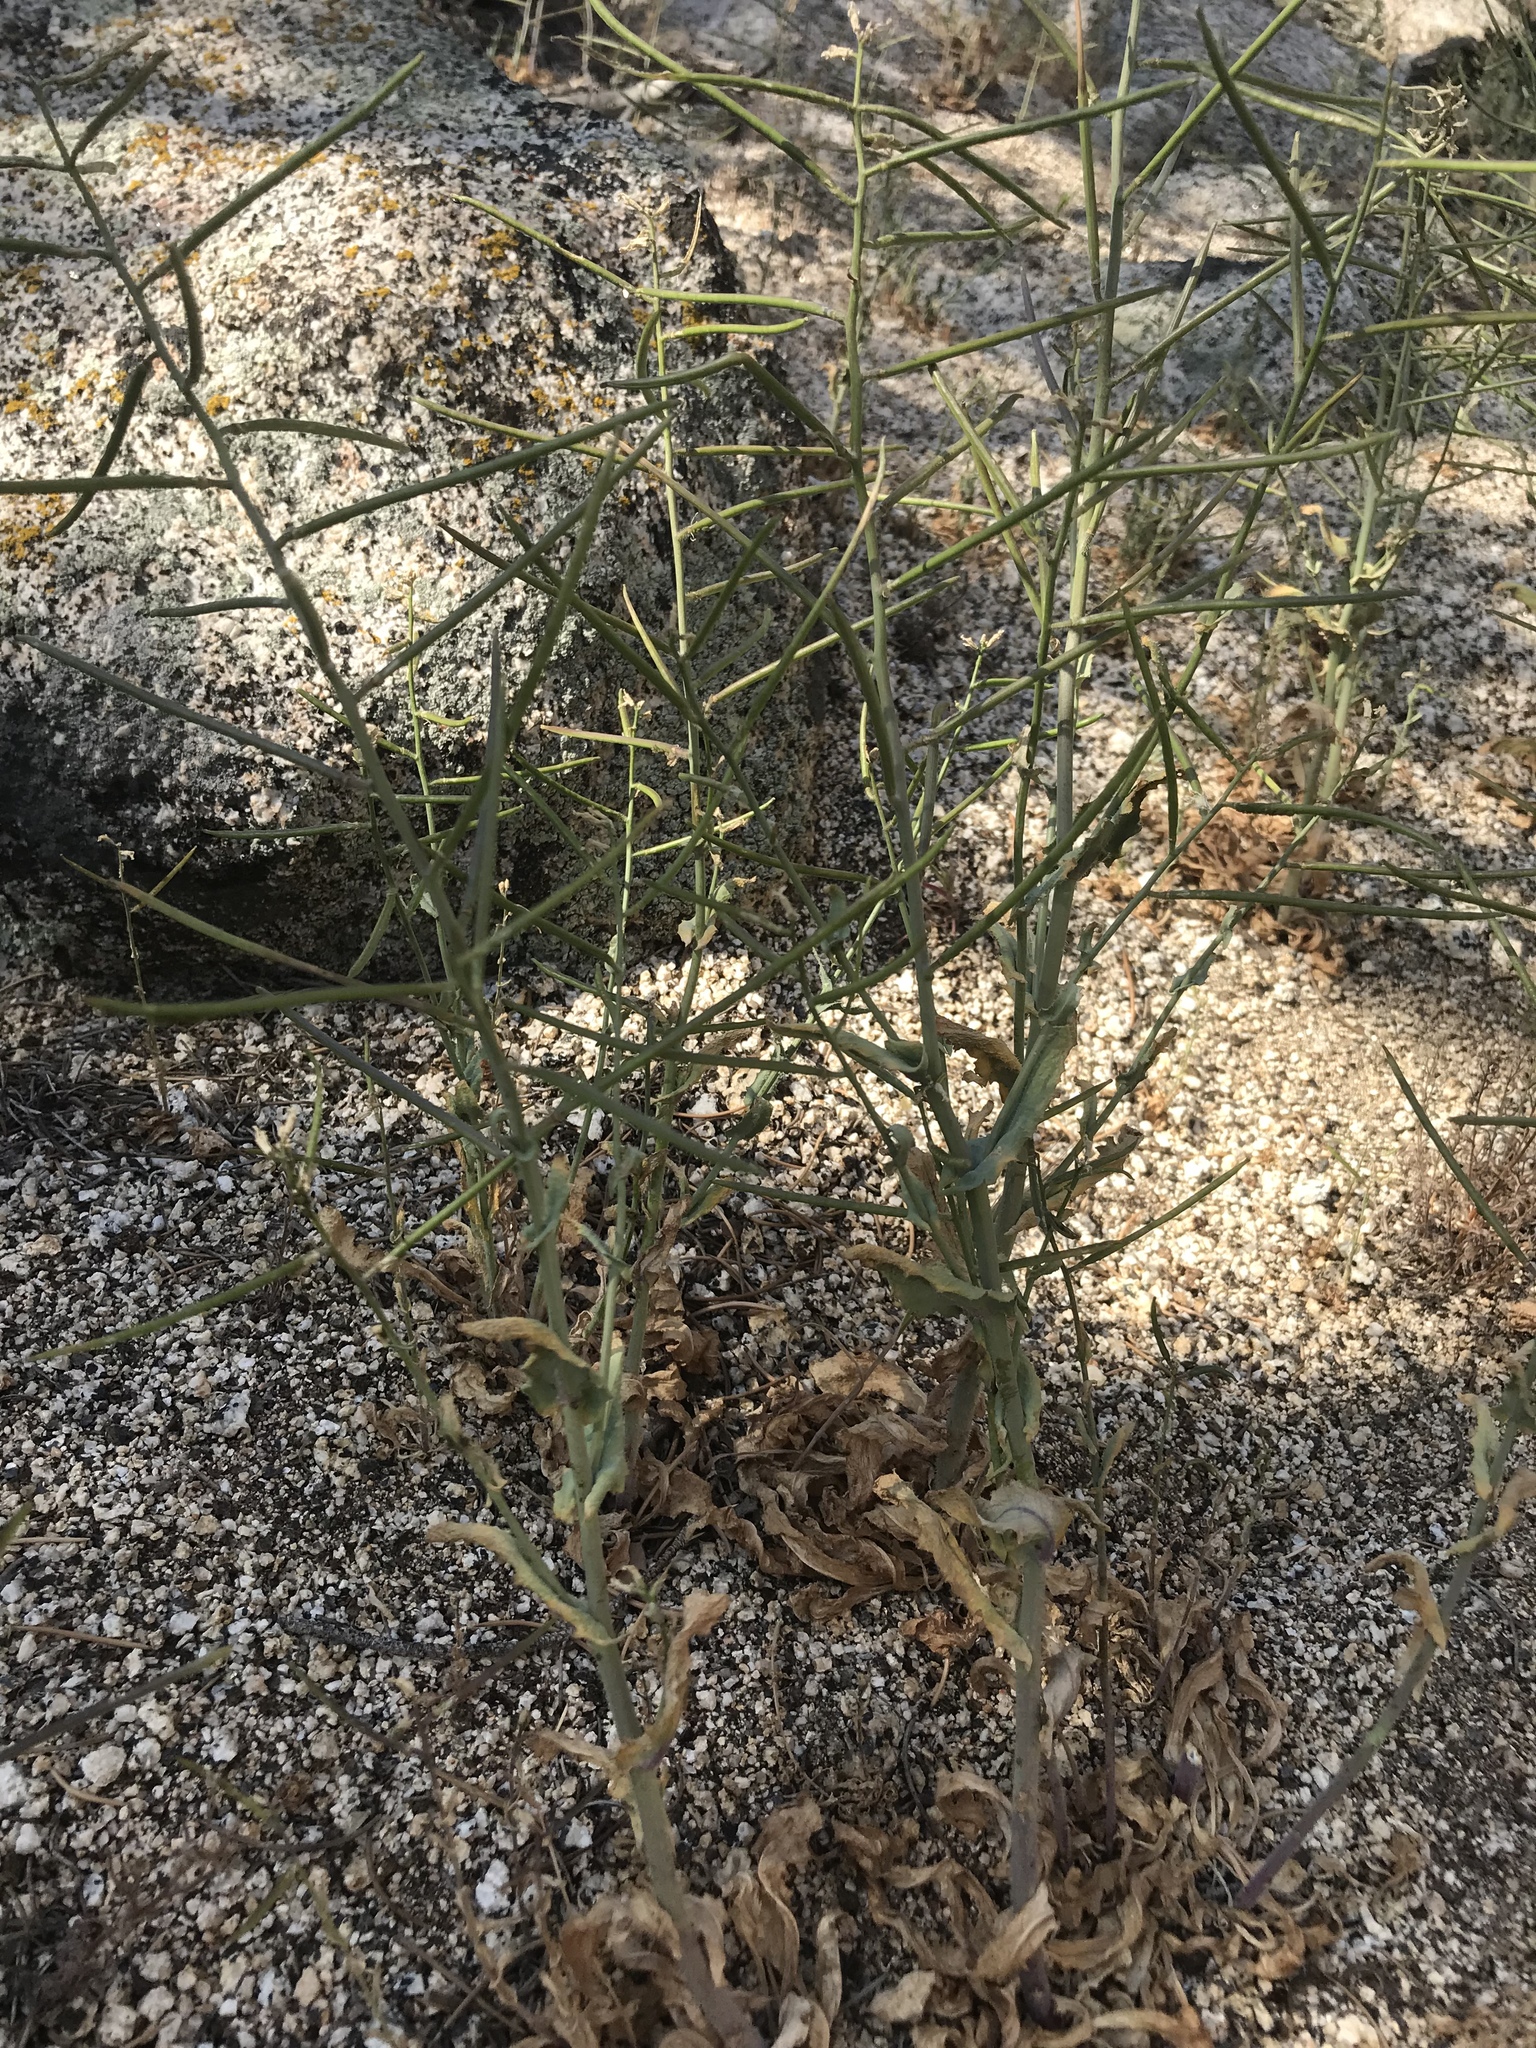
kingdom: Plantae
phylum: Tracheophyta
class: Magnoliopsida
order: Brassicales
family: Brassicaceae
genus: Streptanthus
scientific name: Streptanthus campestris
